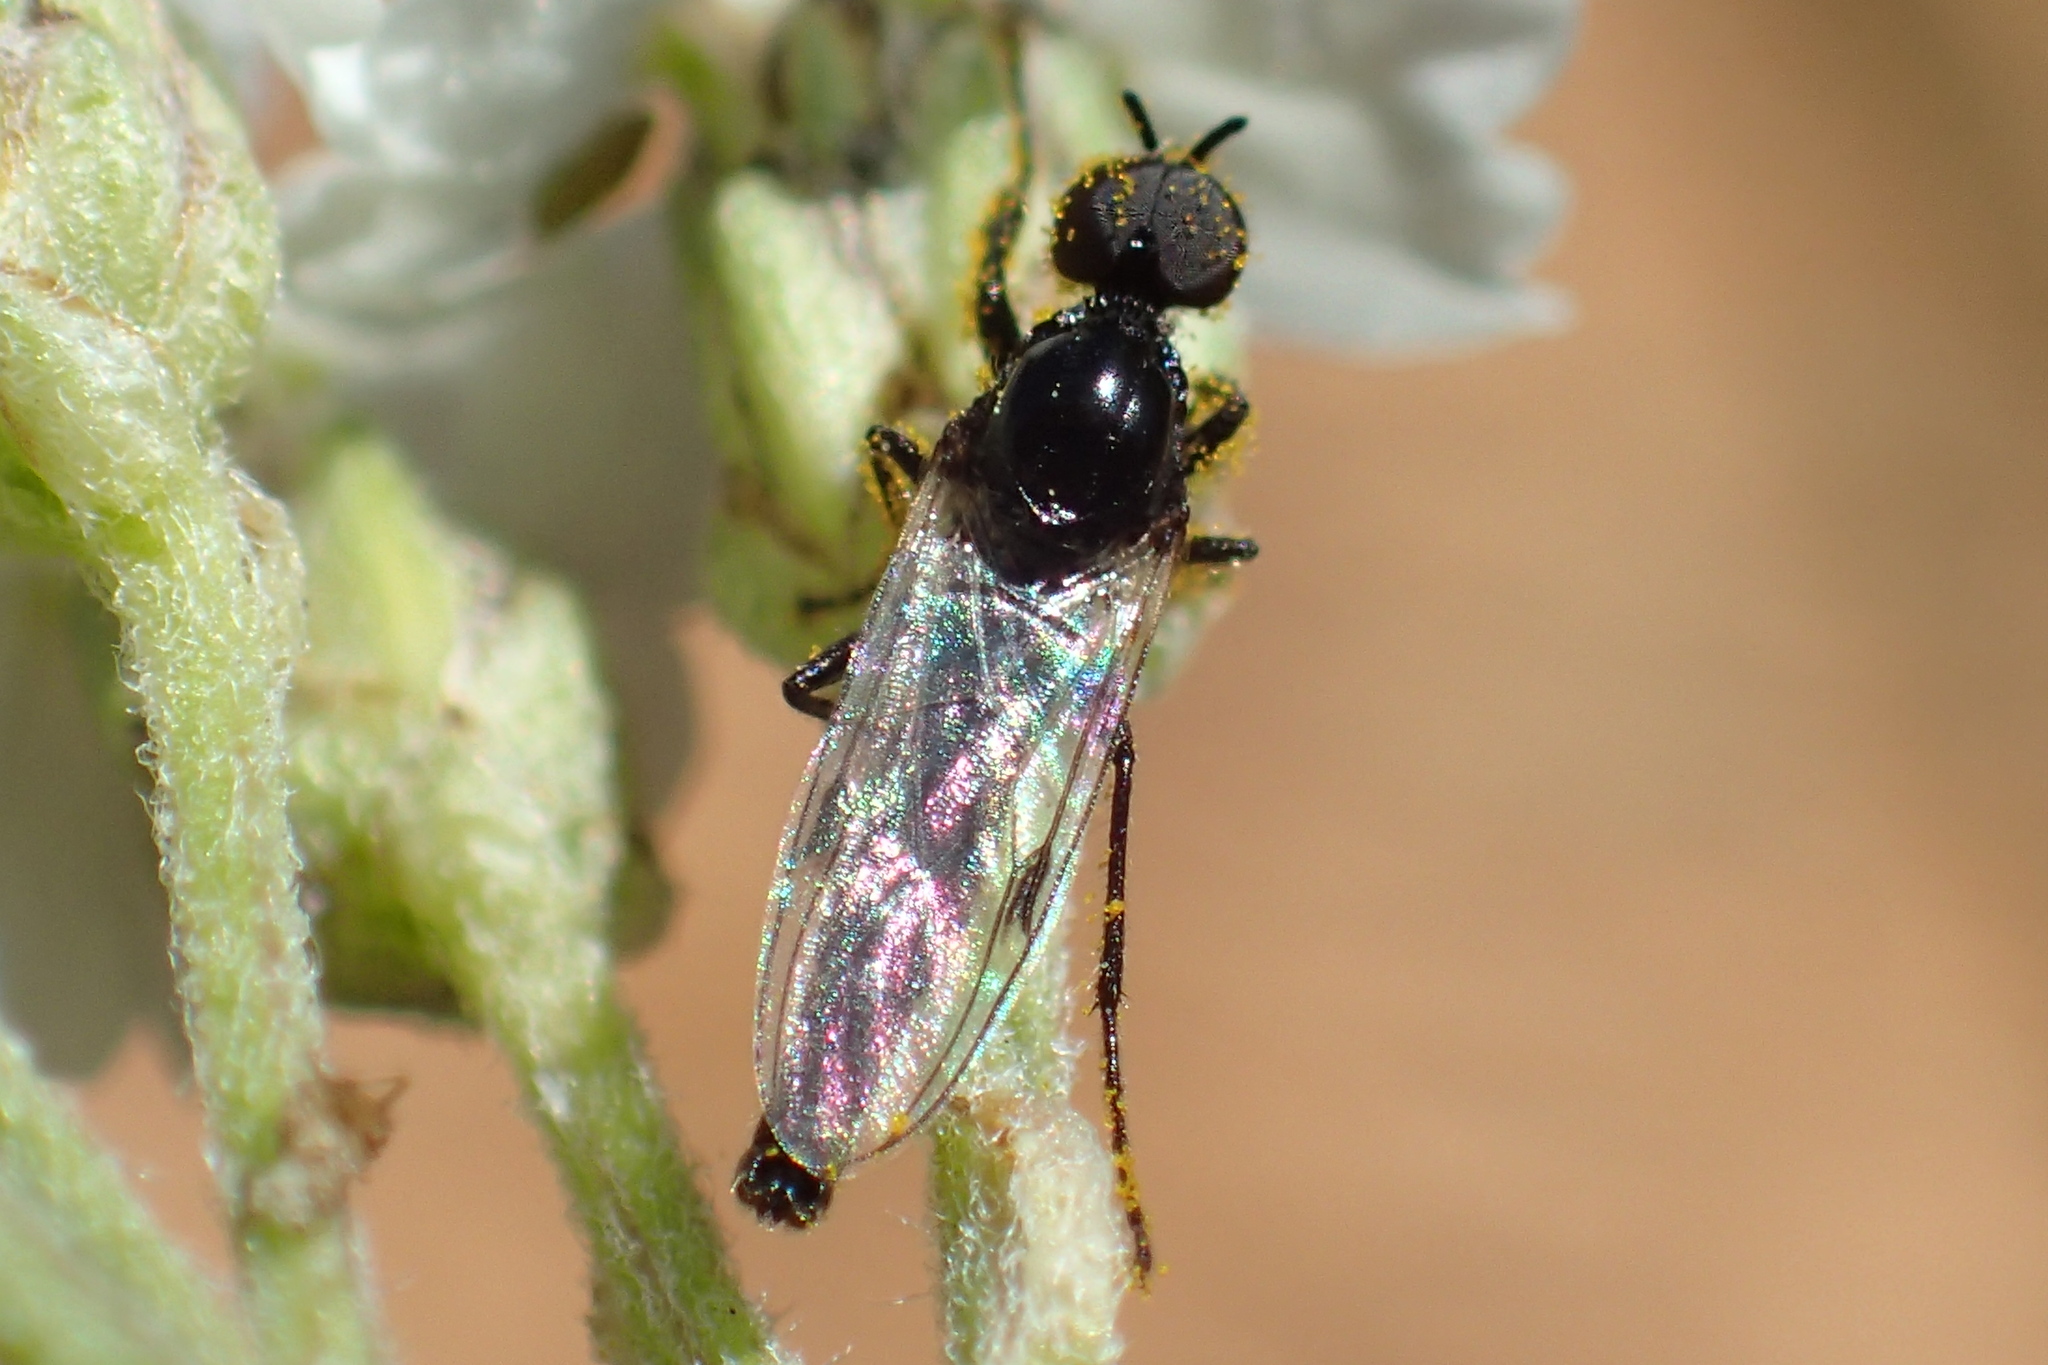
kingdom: Animalia
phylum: Arthropoda
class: Insecta
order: Diptera
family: Bibionidae
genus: Dilophus
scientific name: Dilophus
